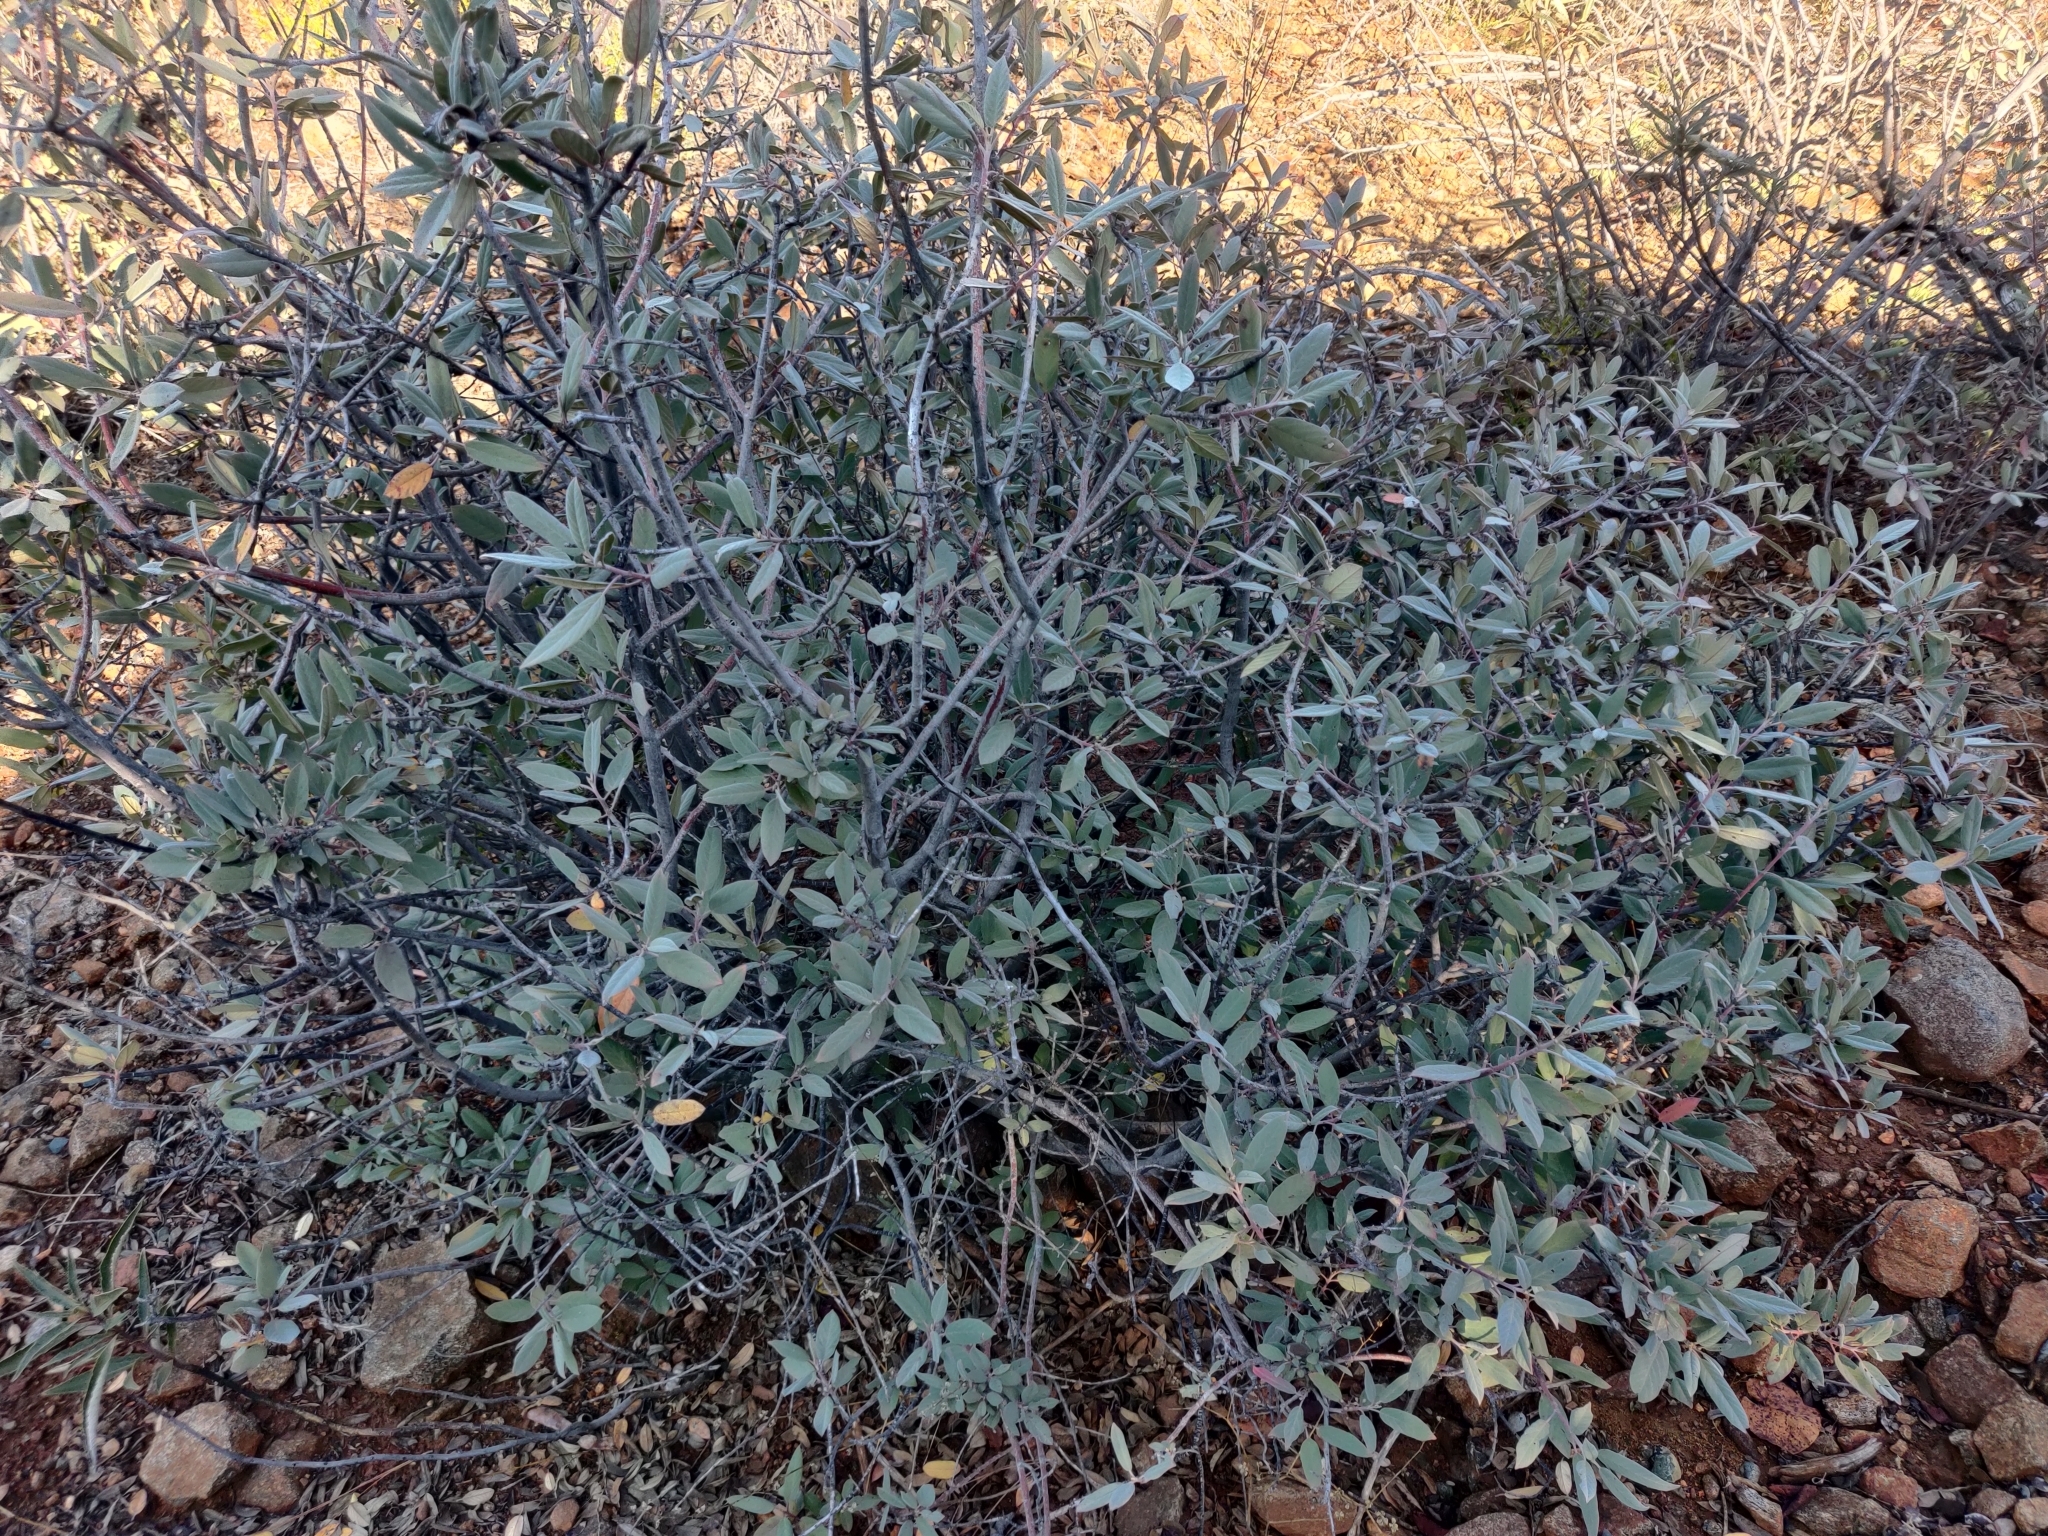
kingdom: Plantae
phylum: Tracheophyta
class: Magnoliopsida
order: Rosales
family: Rhamnaceae
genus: Frangula
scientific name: Frangula californica
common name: California buckthorn
